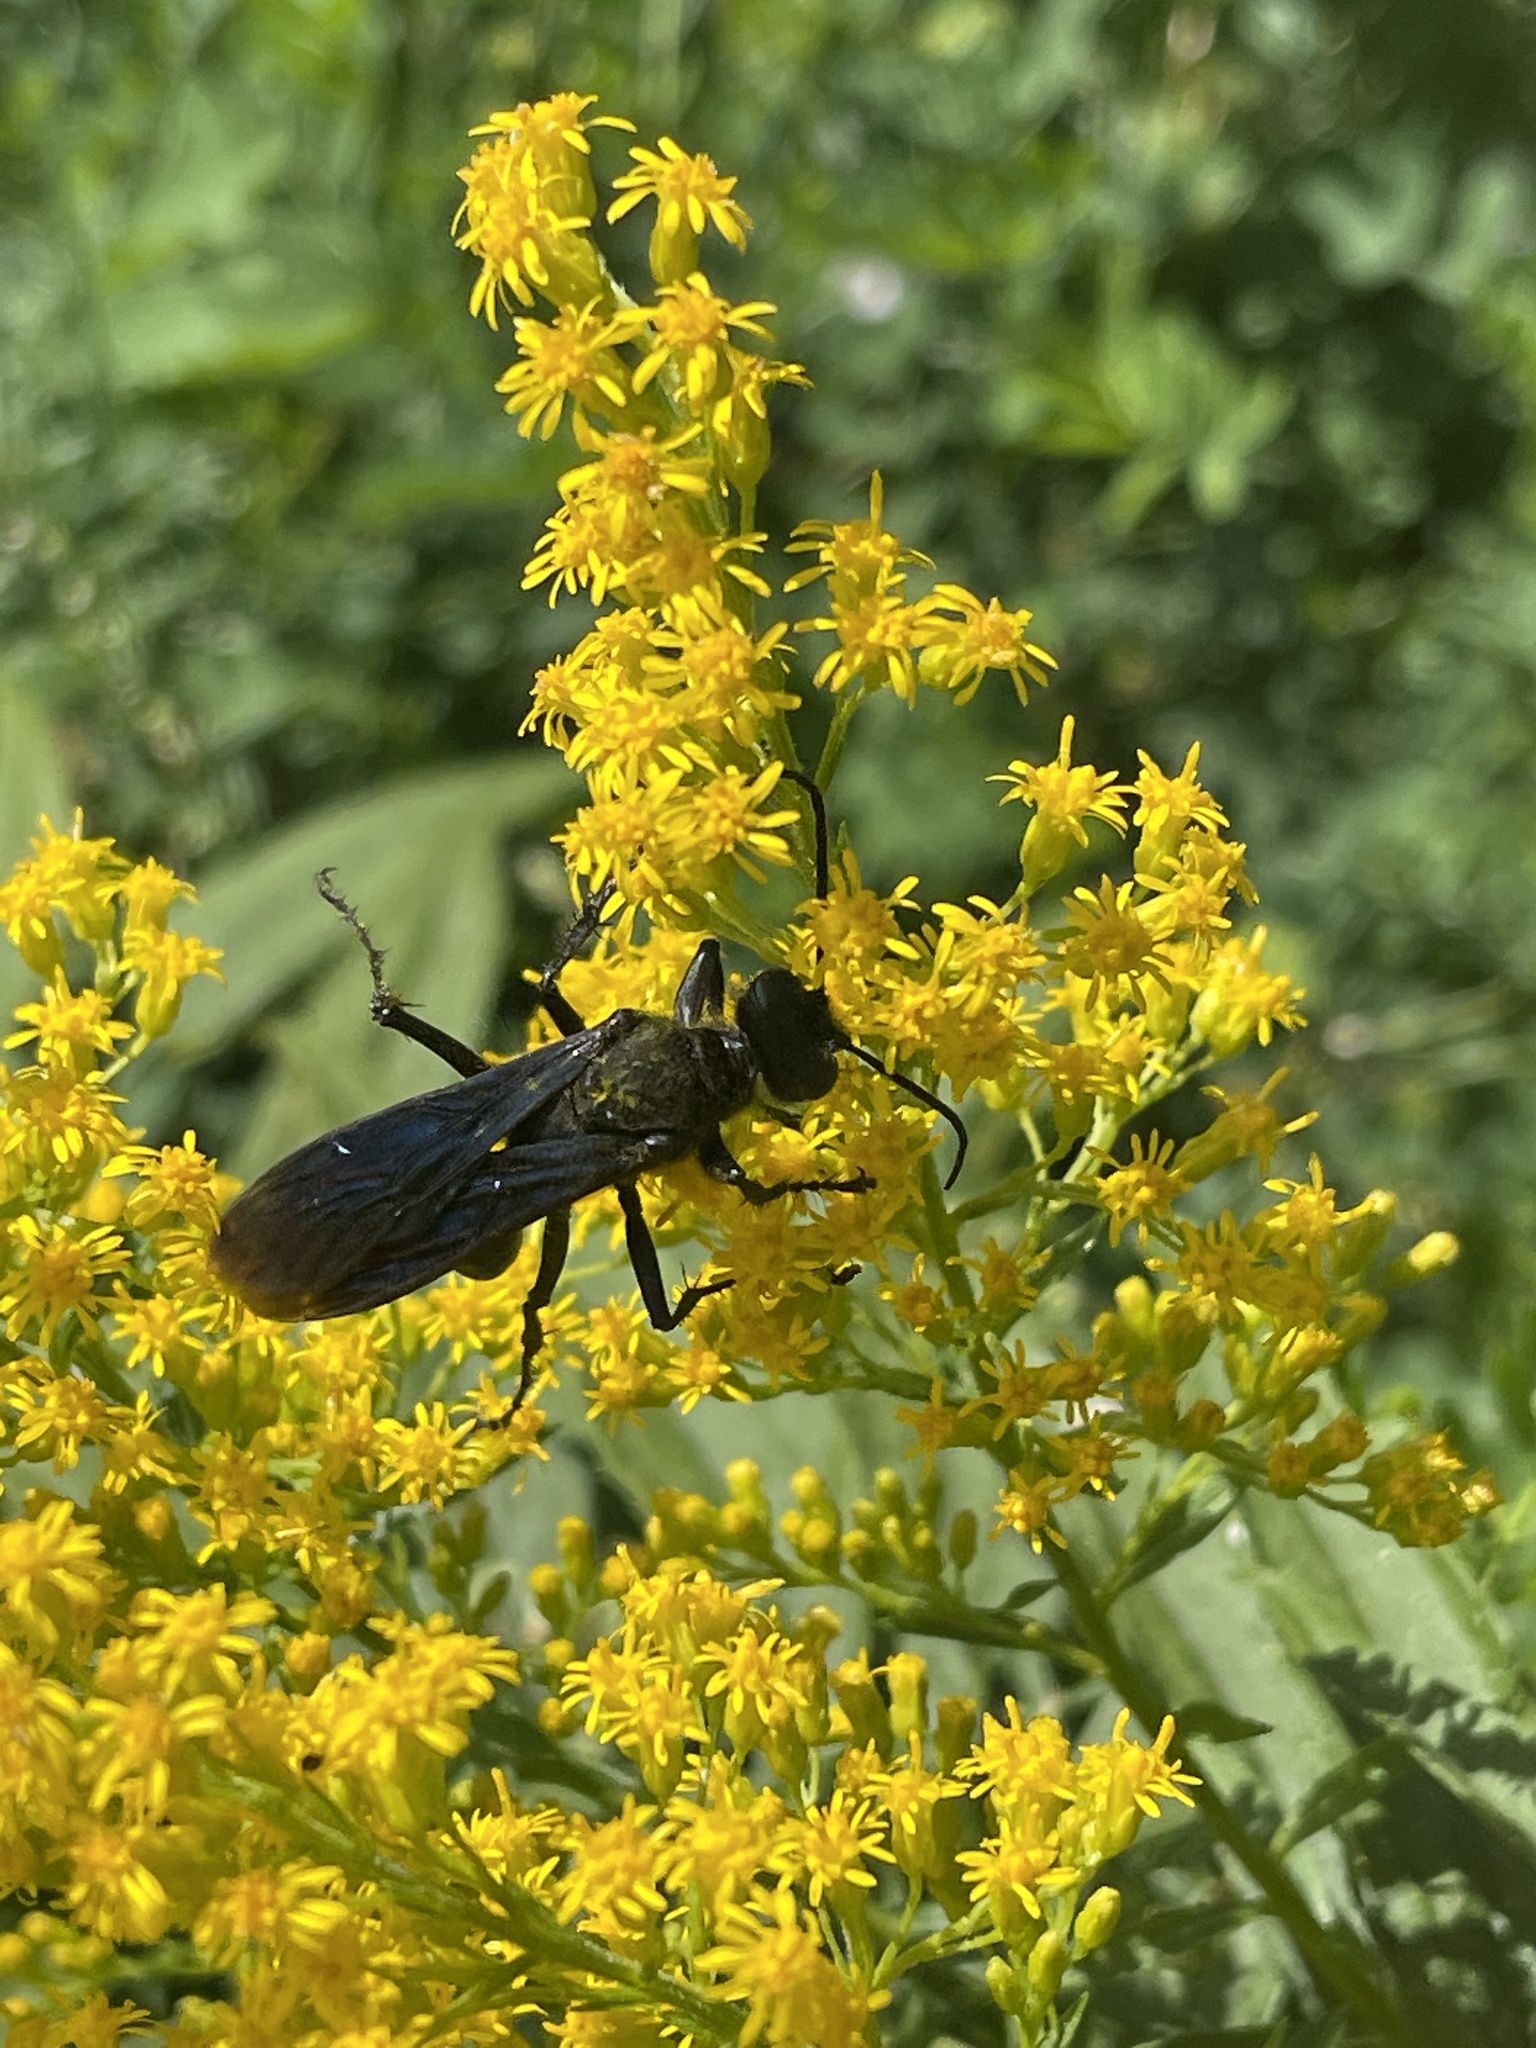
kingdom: Animalia
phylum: Arthropoda
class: Insecta
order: Hymenoptera
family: Sphecidae
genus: Sphex
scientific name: Sphex pensylvanicus
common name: Great black digger wasp
